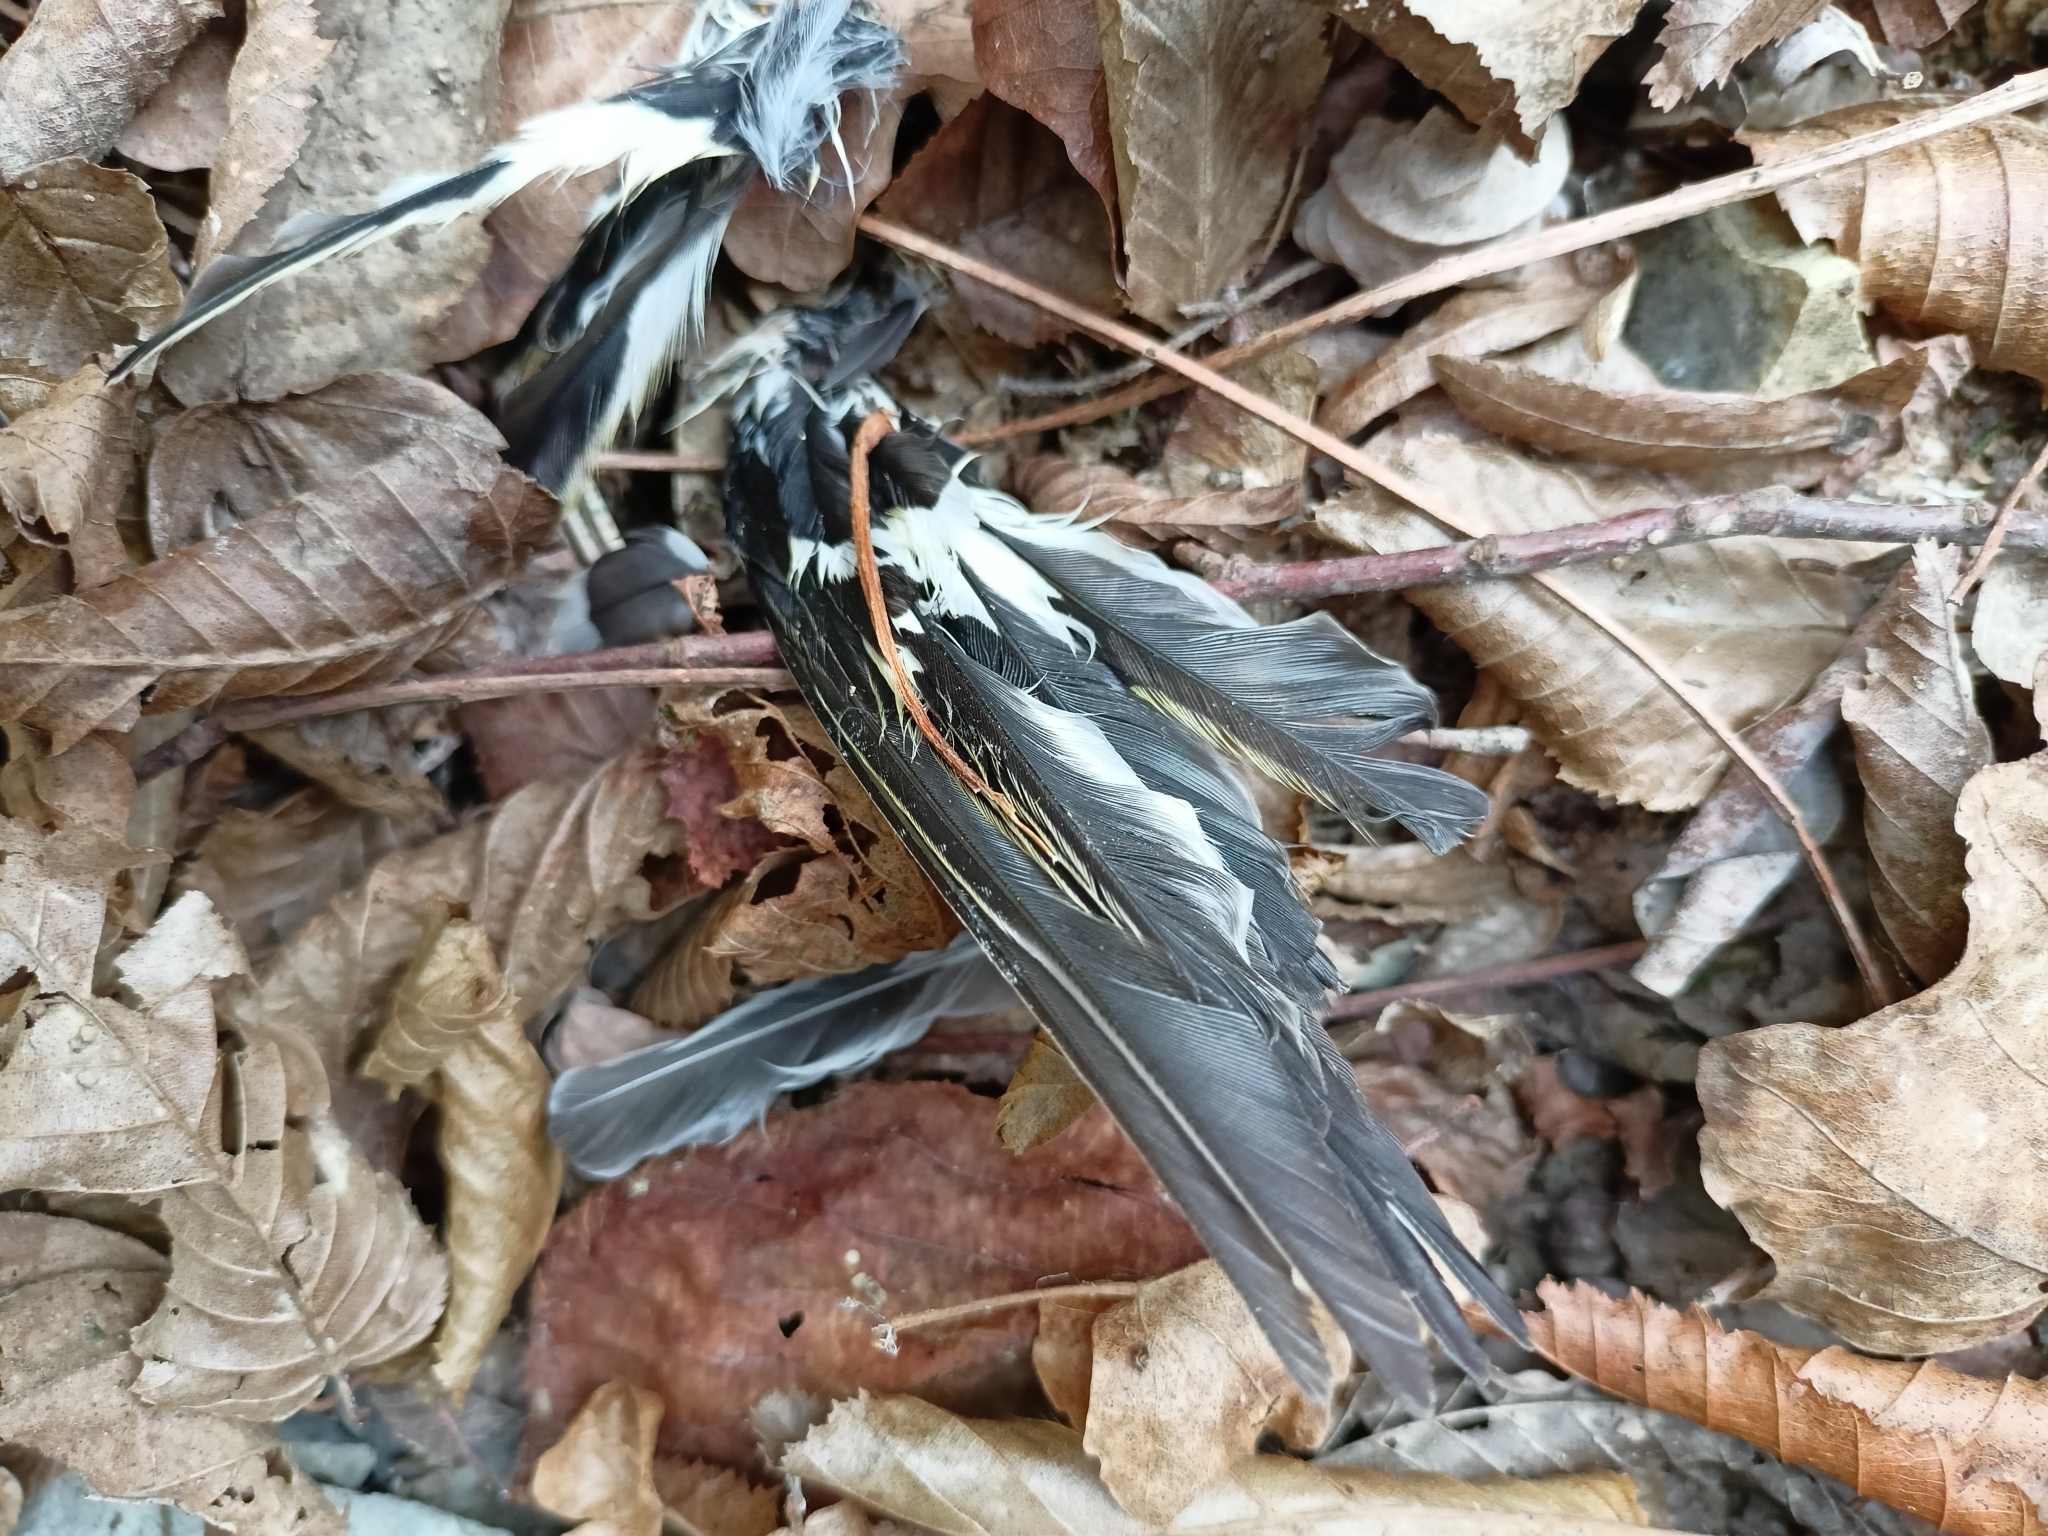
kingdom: Animalia
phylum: Chordata
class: Aves
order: Passeriformes
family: Fringillidae
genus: Fringilla
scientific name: Fringilla coelebs
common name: Common chaffinch
